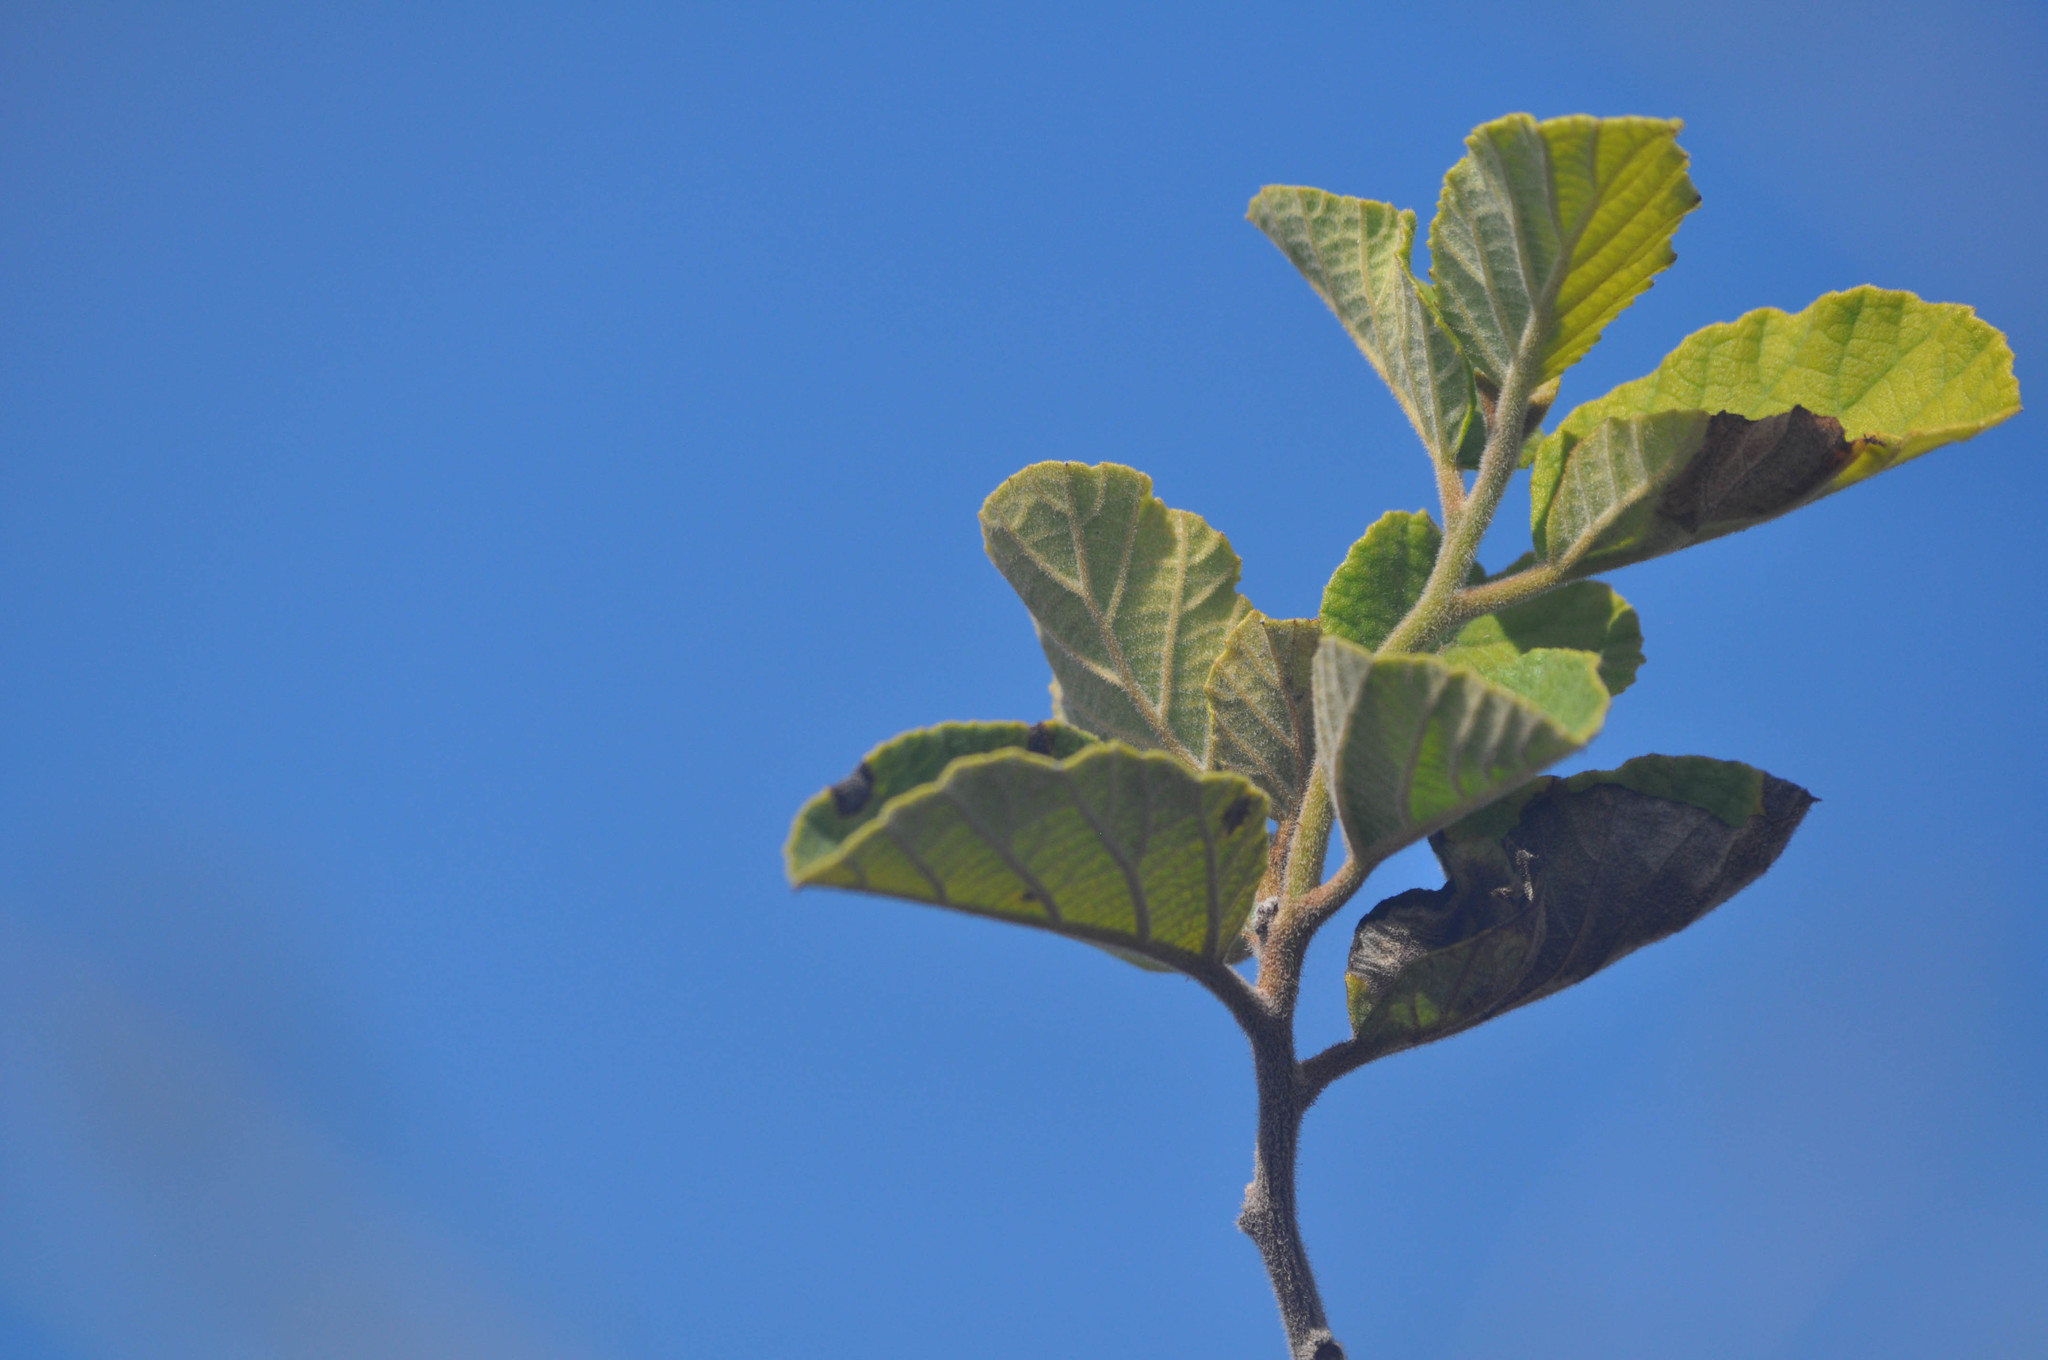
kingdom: Plantae
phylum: Tracheophyta
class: Magnoliopsida
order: Boraginales
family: Cordiaceae
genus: Cordia
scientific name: Cordia lutea
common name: Yellow geiger
